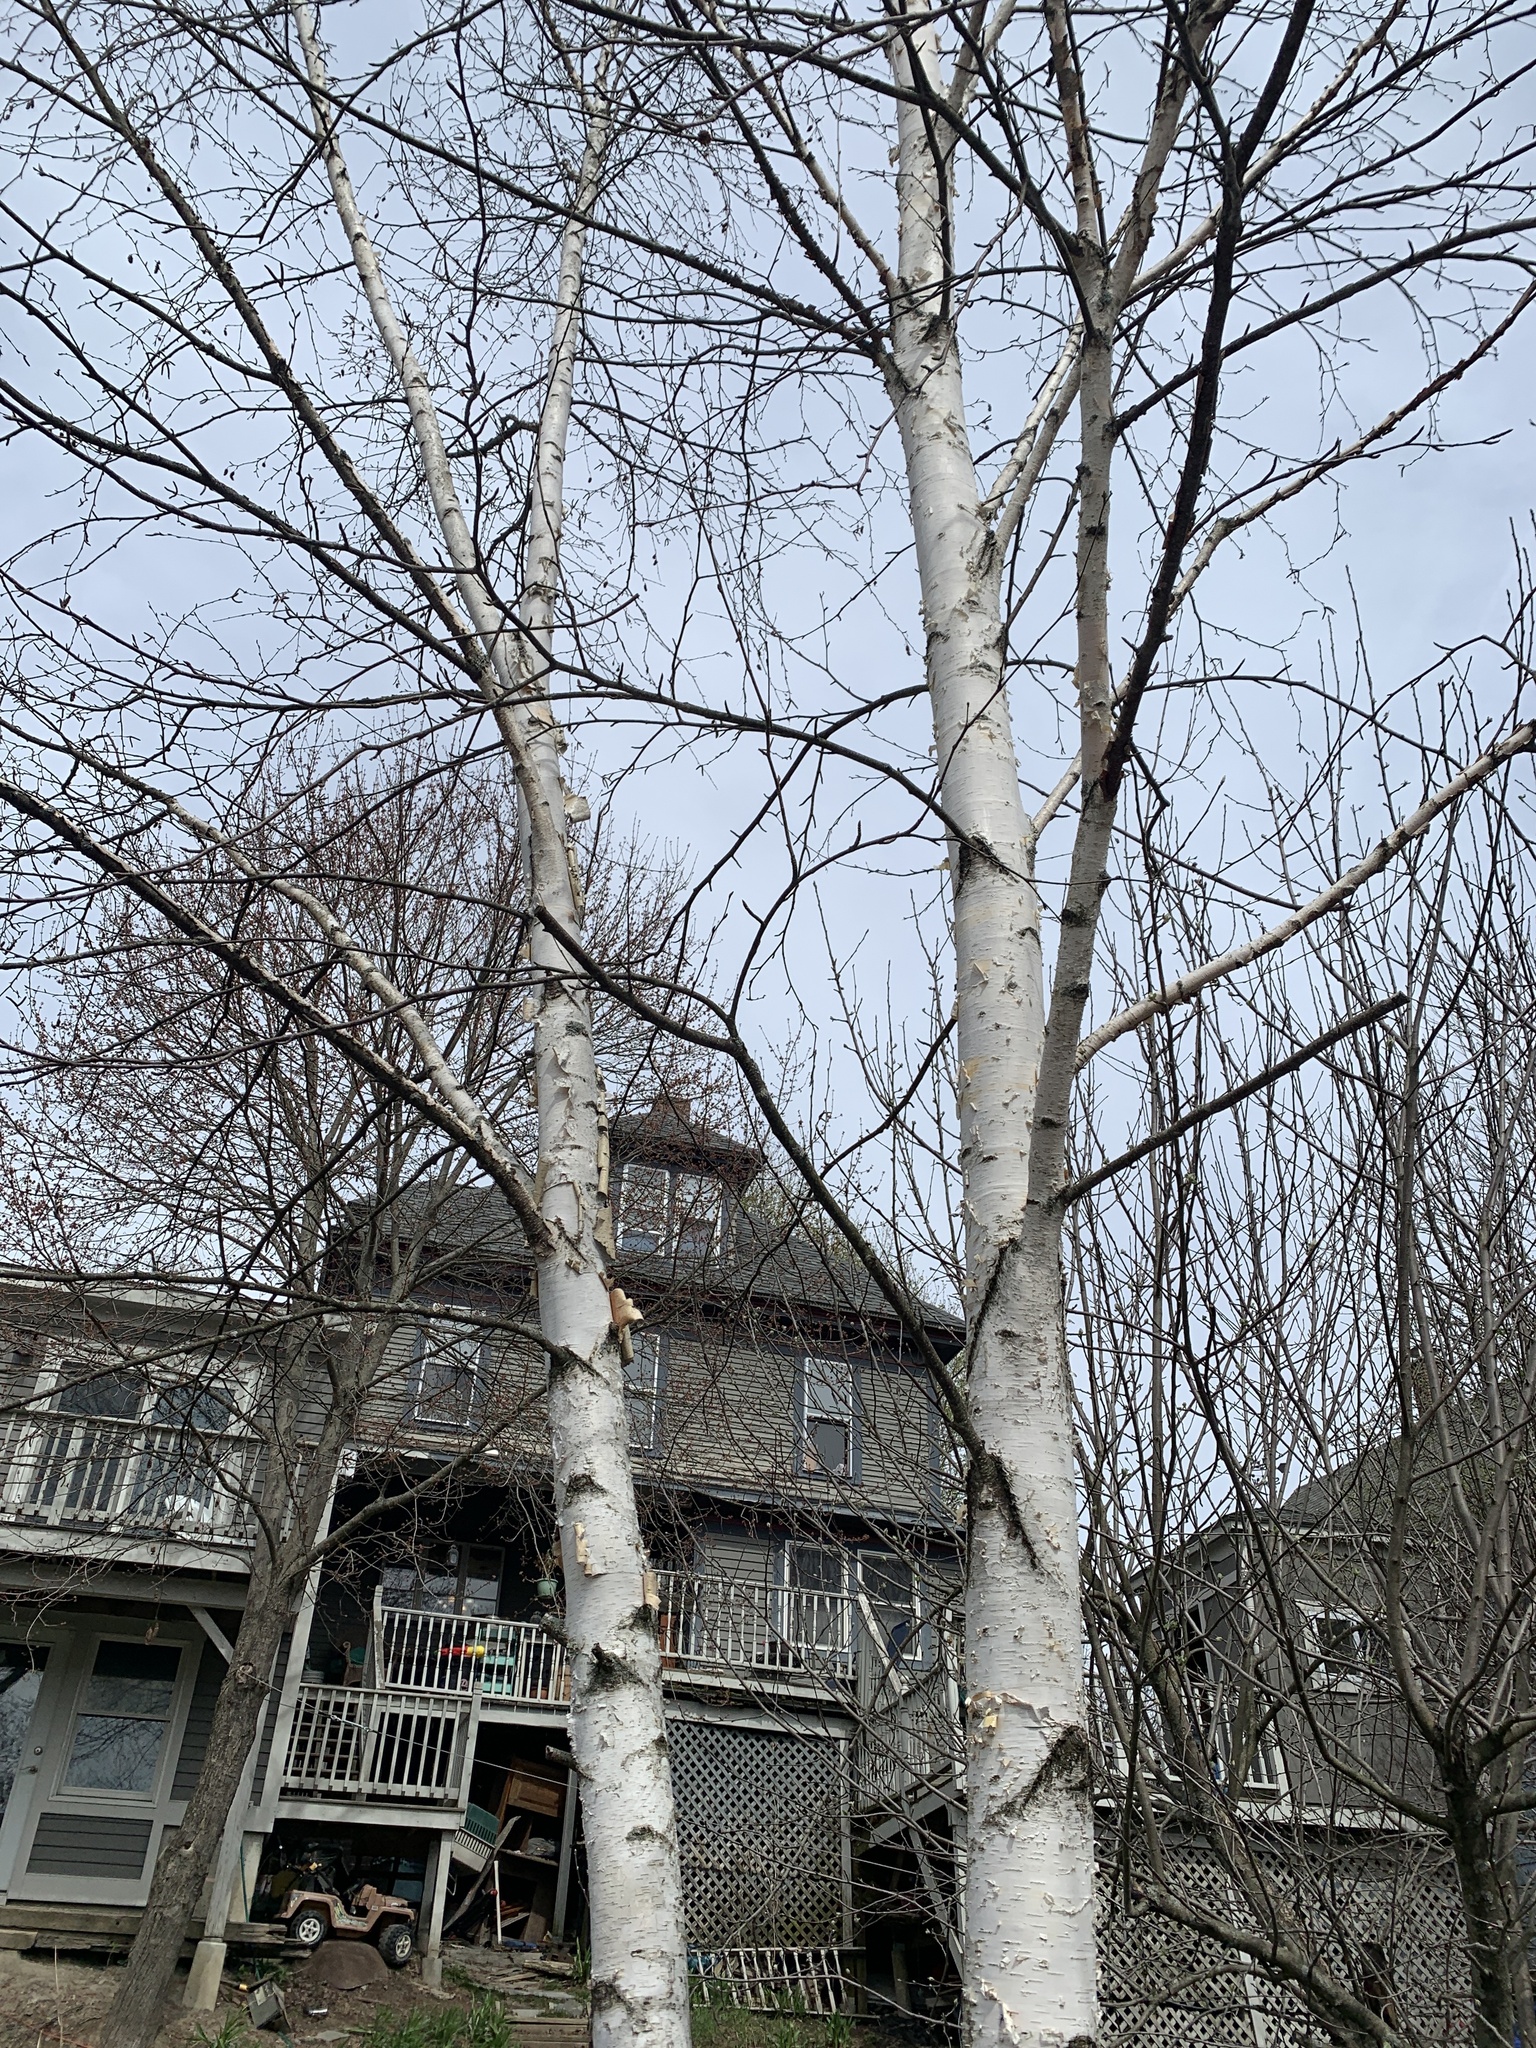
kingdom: Plantae
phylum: Tracheophyta
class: Magnoliopsida
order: Fagales
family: Betulaceae
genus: Betula
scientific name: Betula papyrifera
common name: Paper birch
